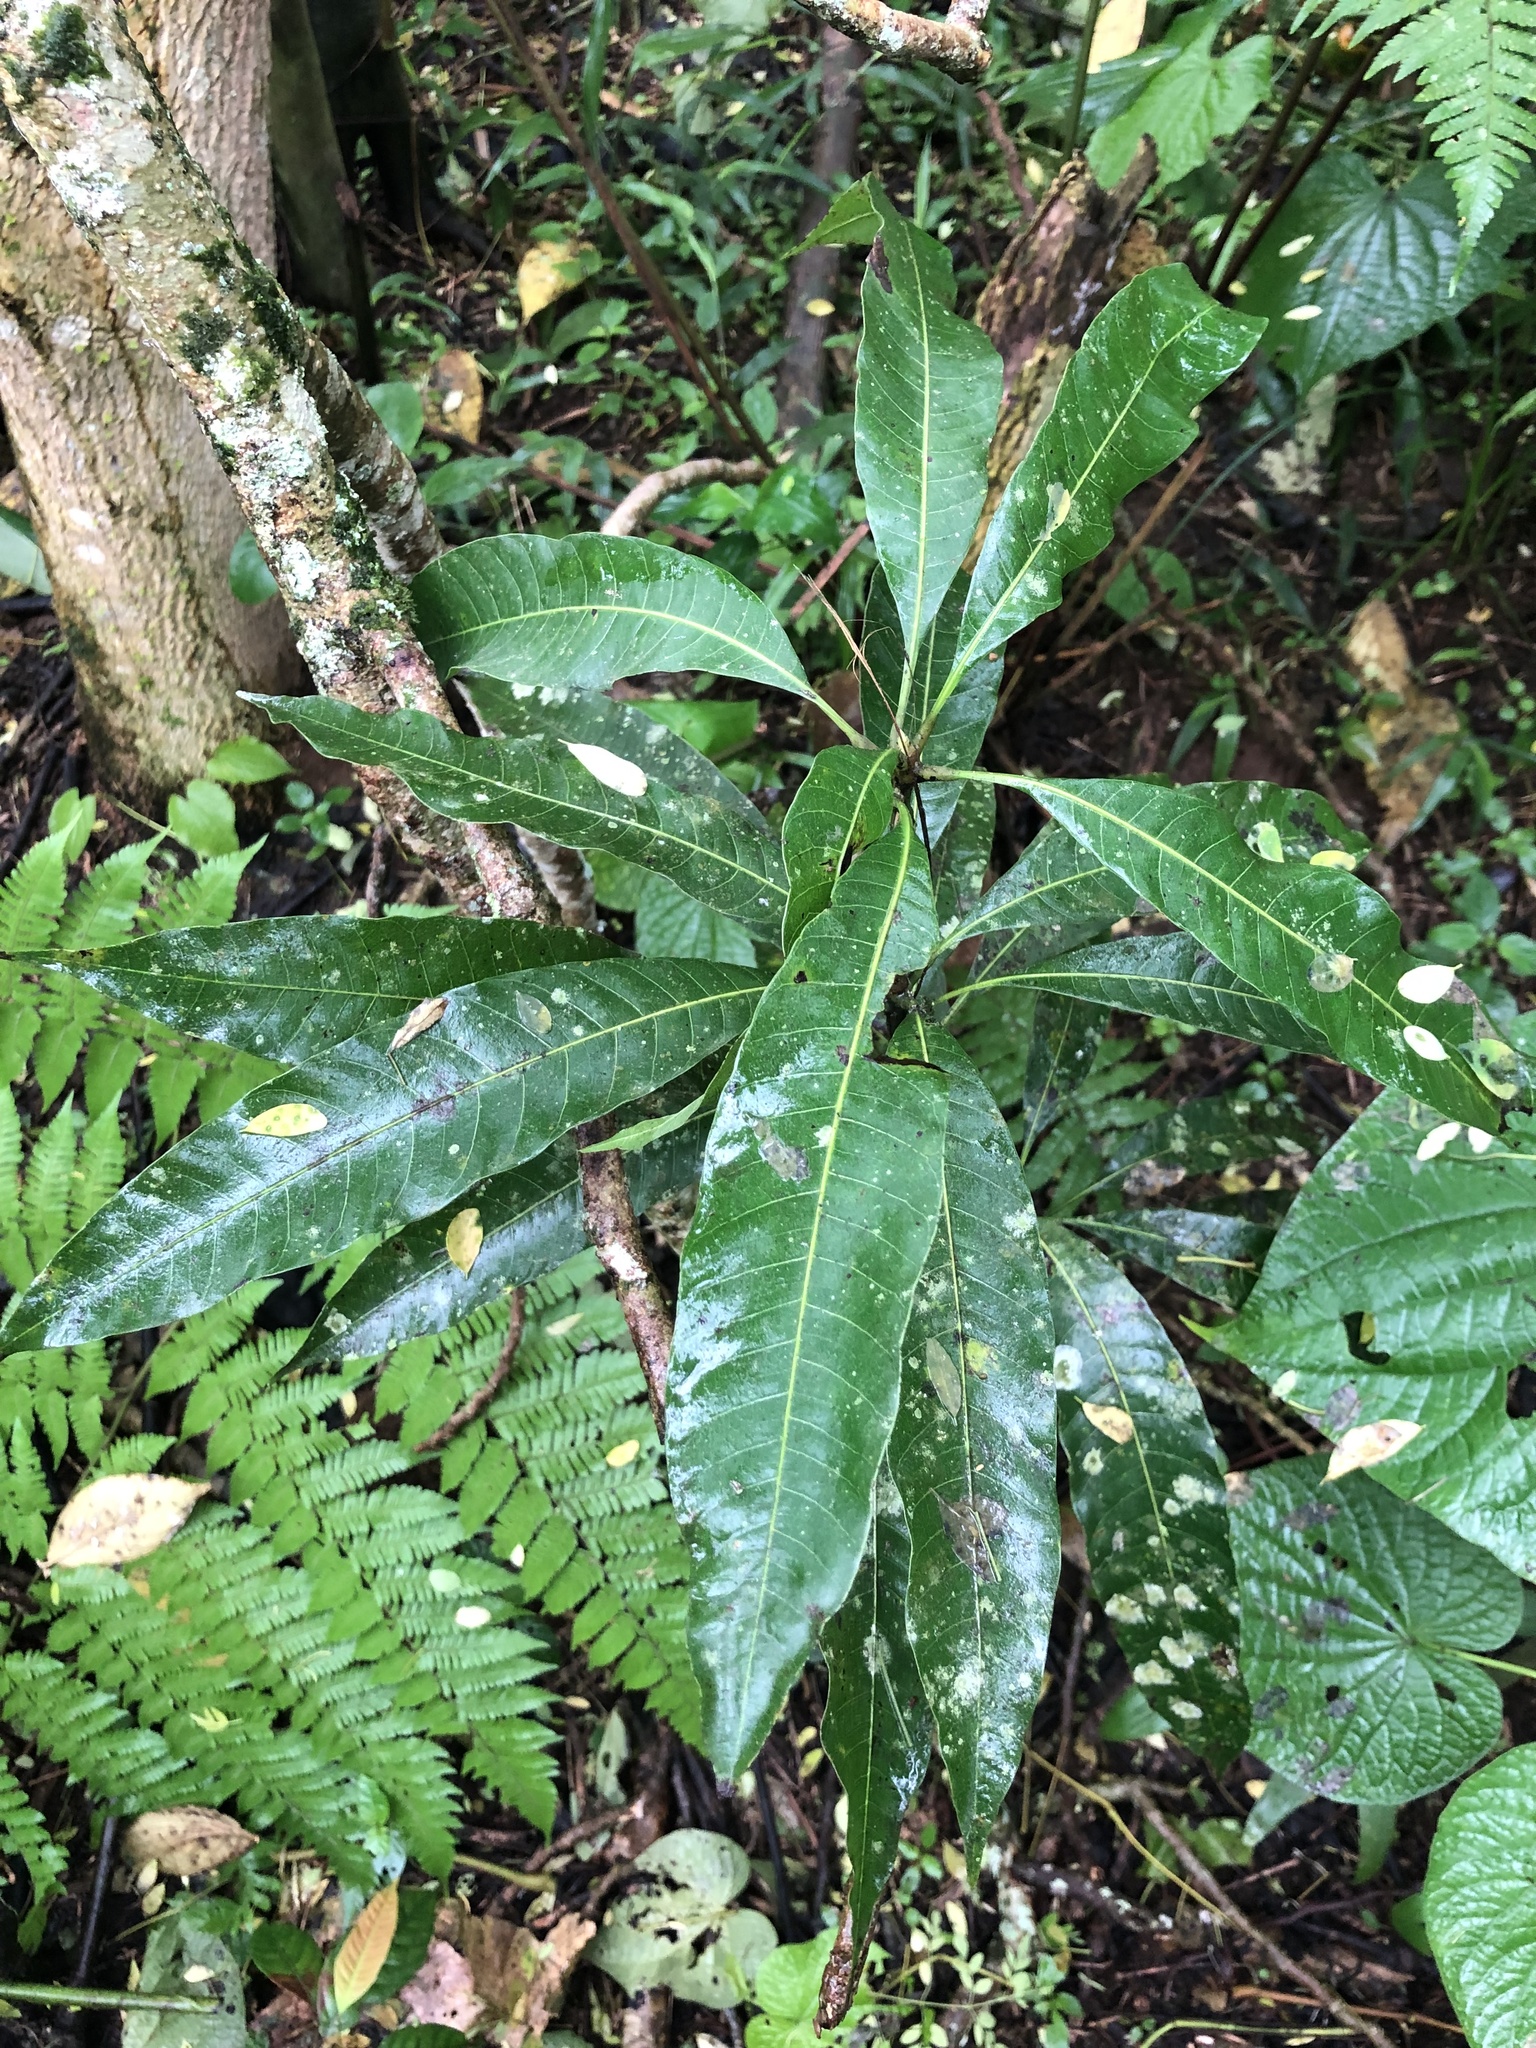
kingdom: Plantae
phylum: Tracheophyta
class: Magnoliopsida
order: Sapindales
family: Anacardiaceae
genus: Mangifera
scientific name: Mangifera indica
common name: Mango
